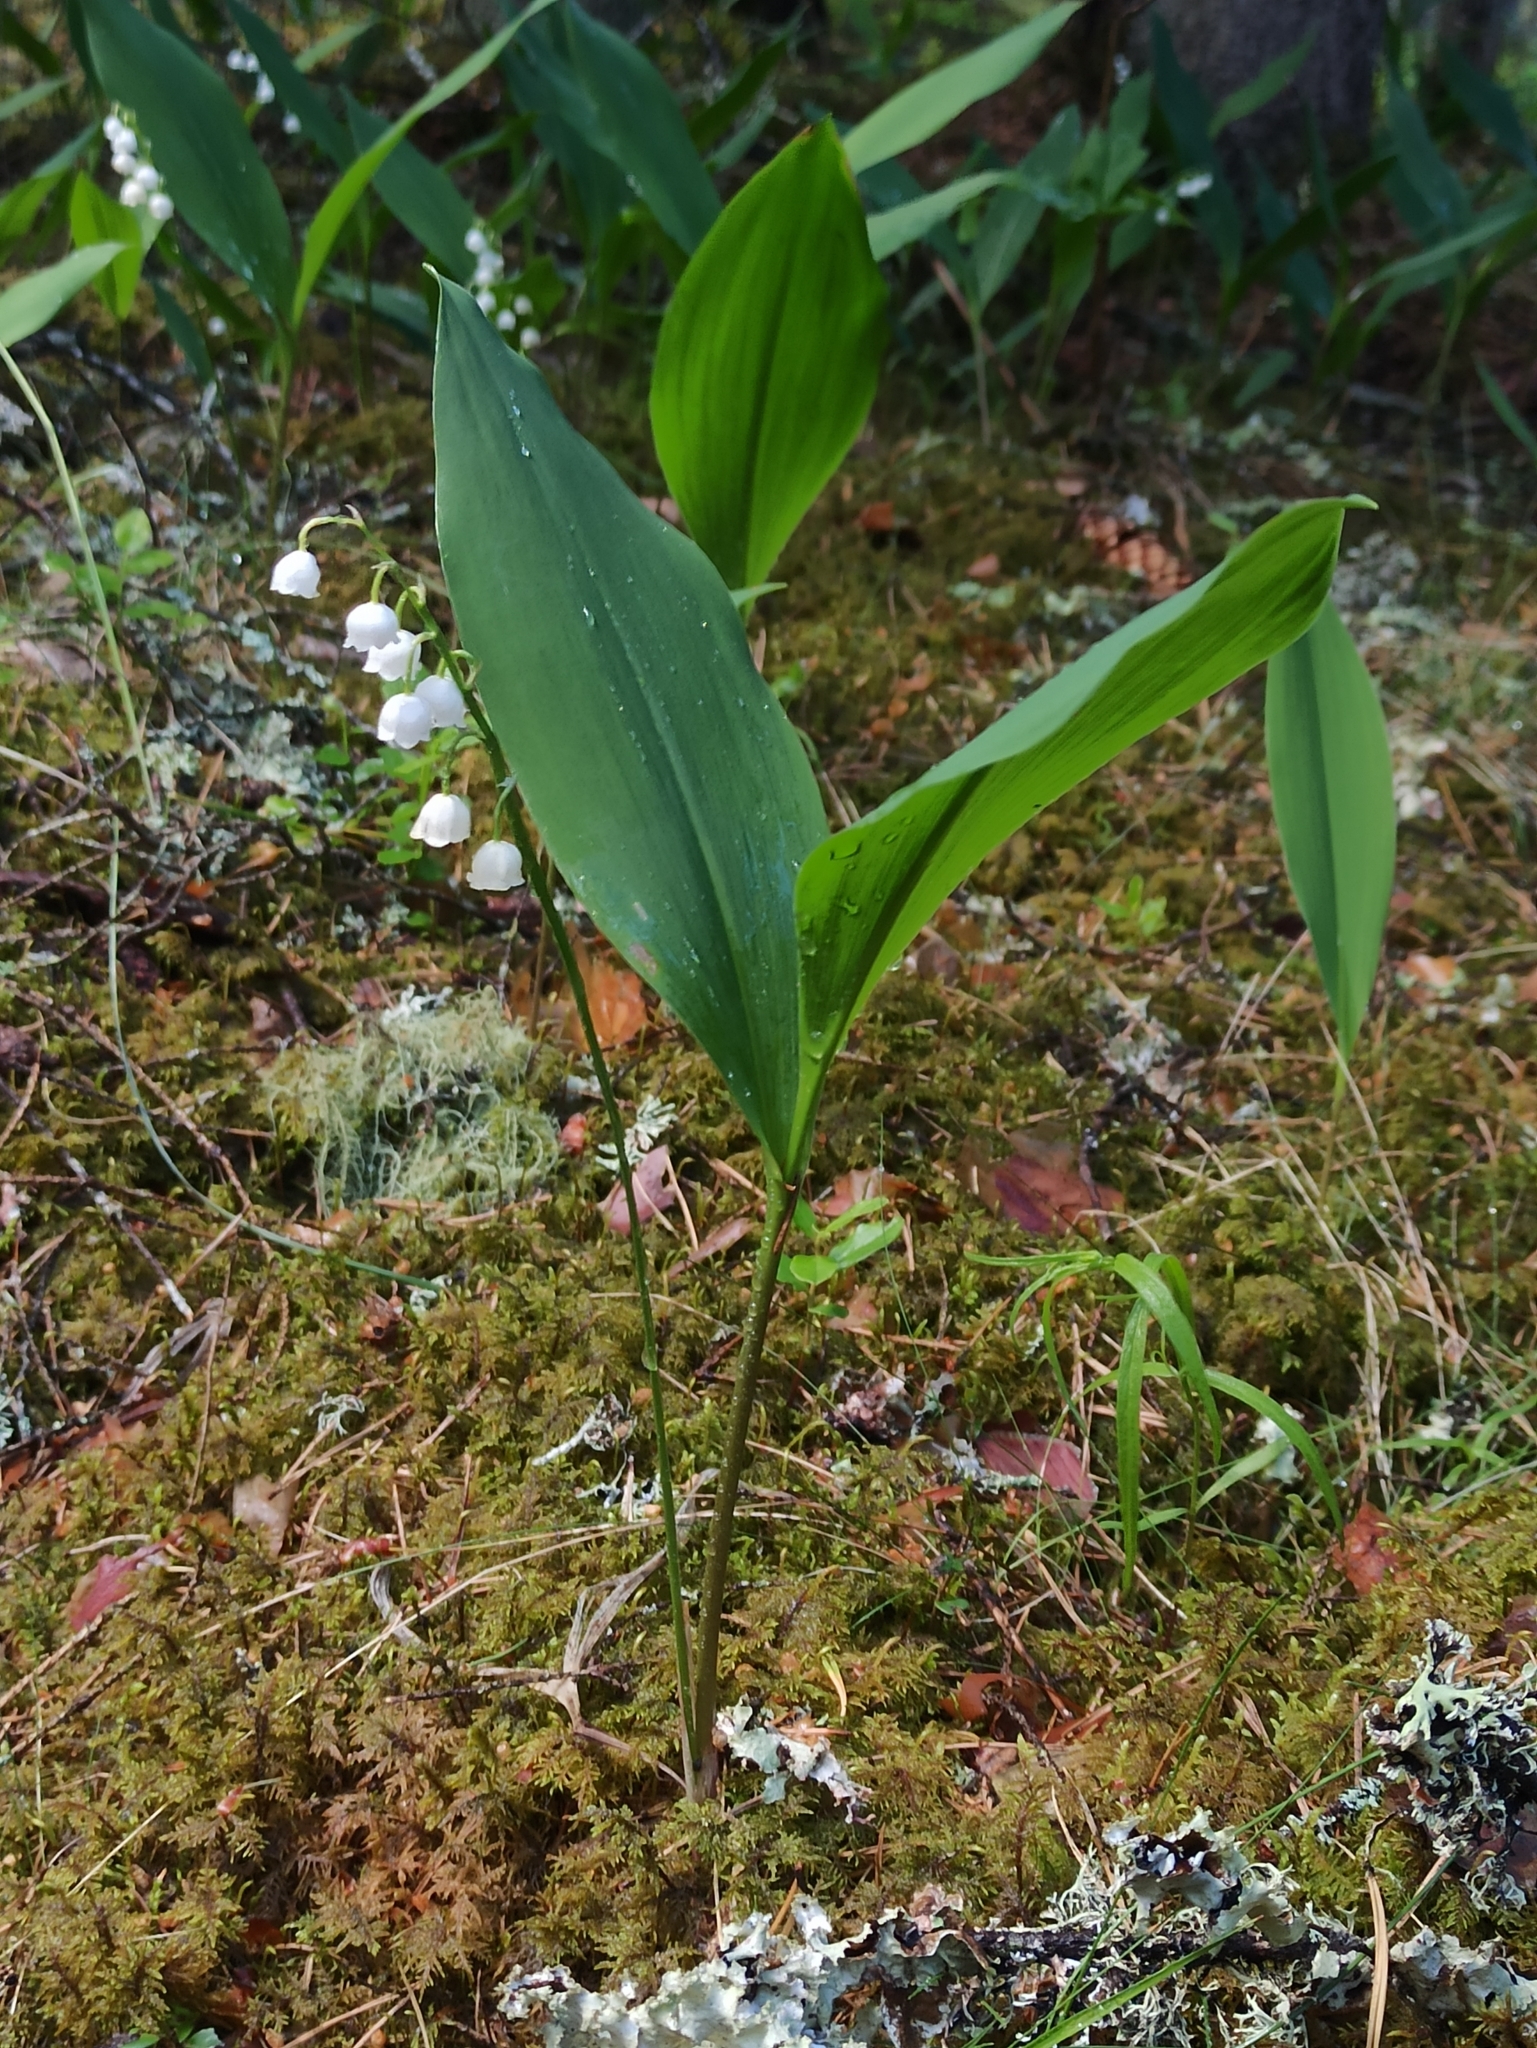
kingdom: Plantae
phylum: Tracheophyta
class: Liliopsida
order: Asparagales
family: Asparagaceae
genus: Convallaria
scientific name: Convallaria majalis
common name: Lily-of-the-valley
